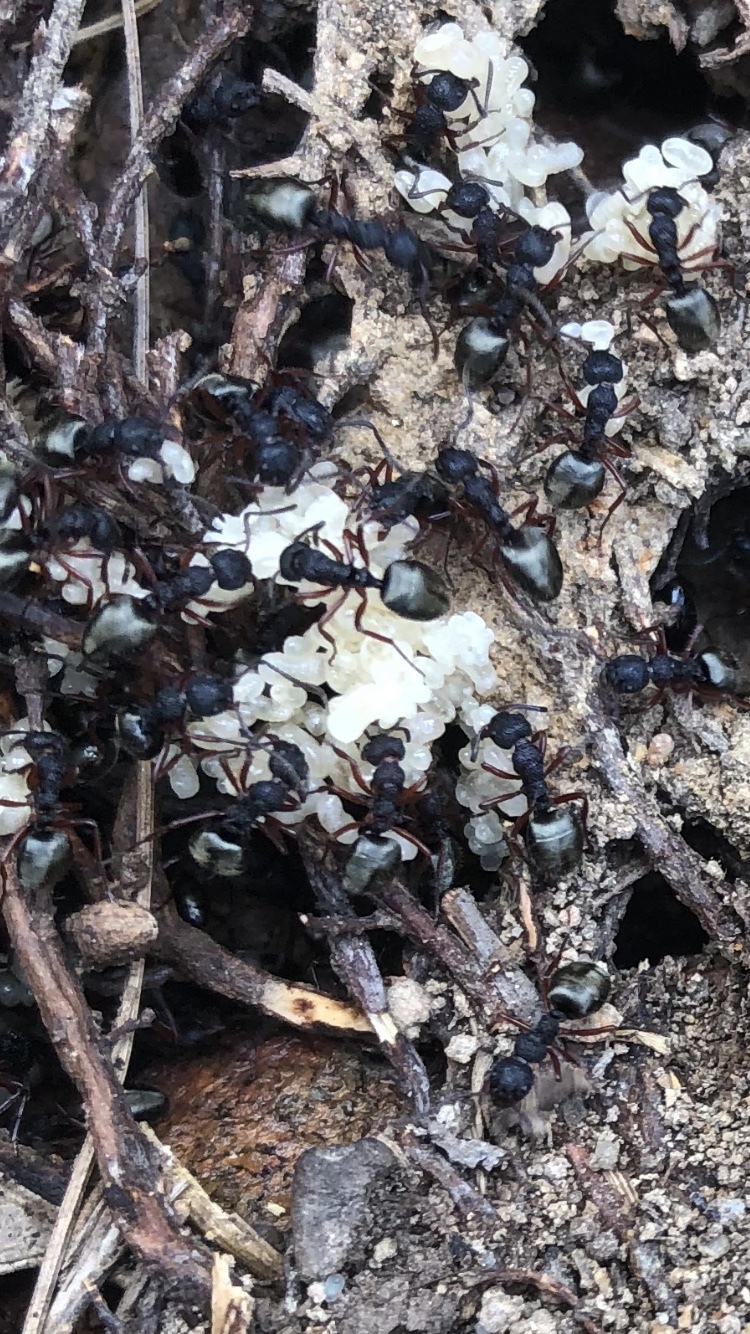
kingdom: Animalia
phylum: Arthropoda
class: Insecta
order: Hymenoptera
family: Formicidae
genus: Dolichoderus
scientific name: Dolichoderus scabridus
